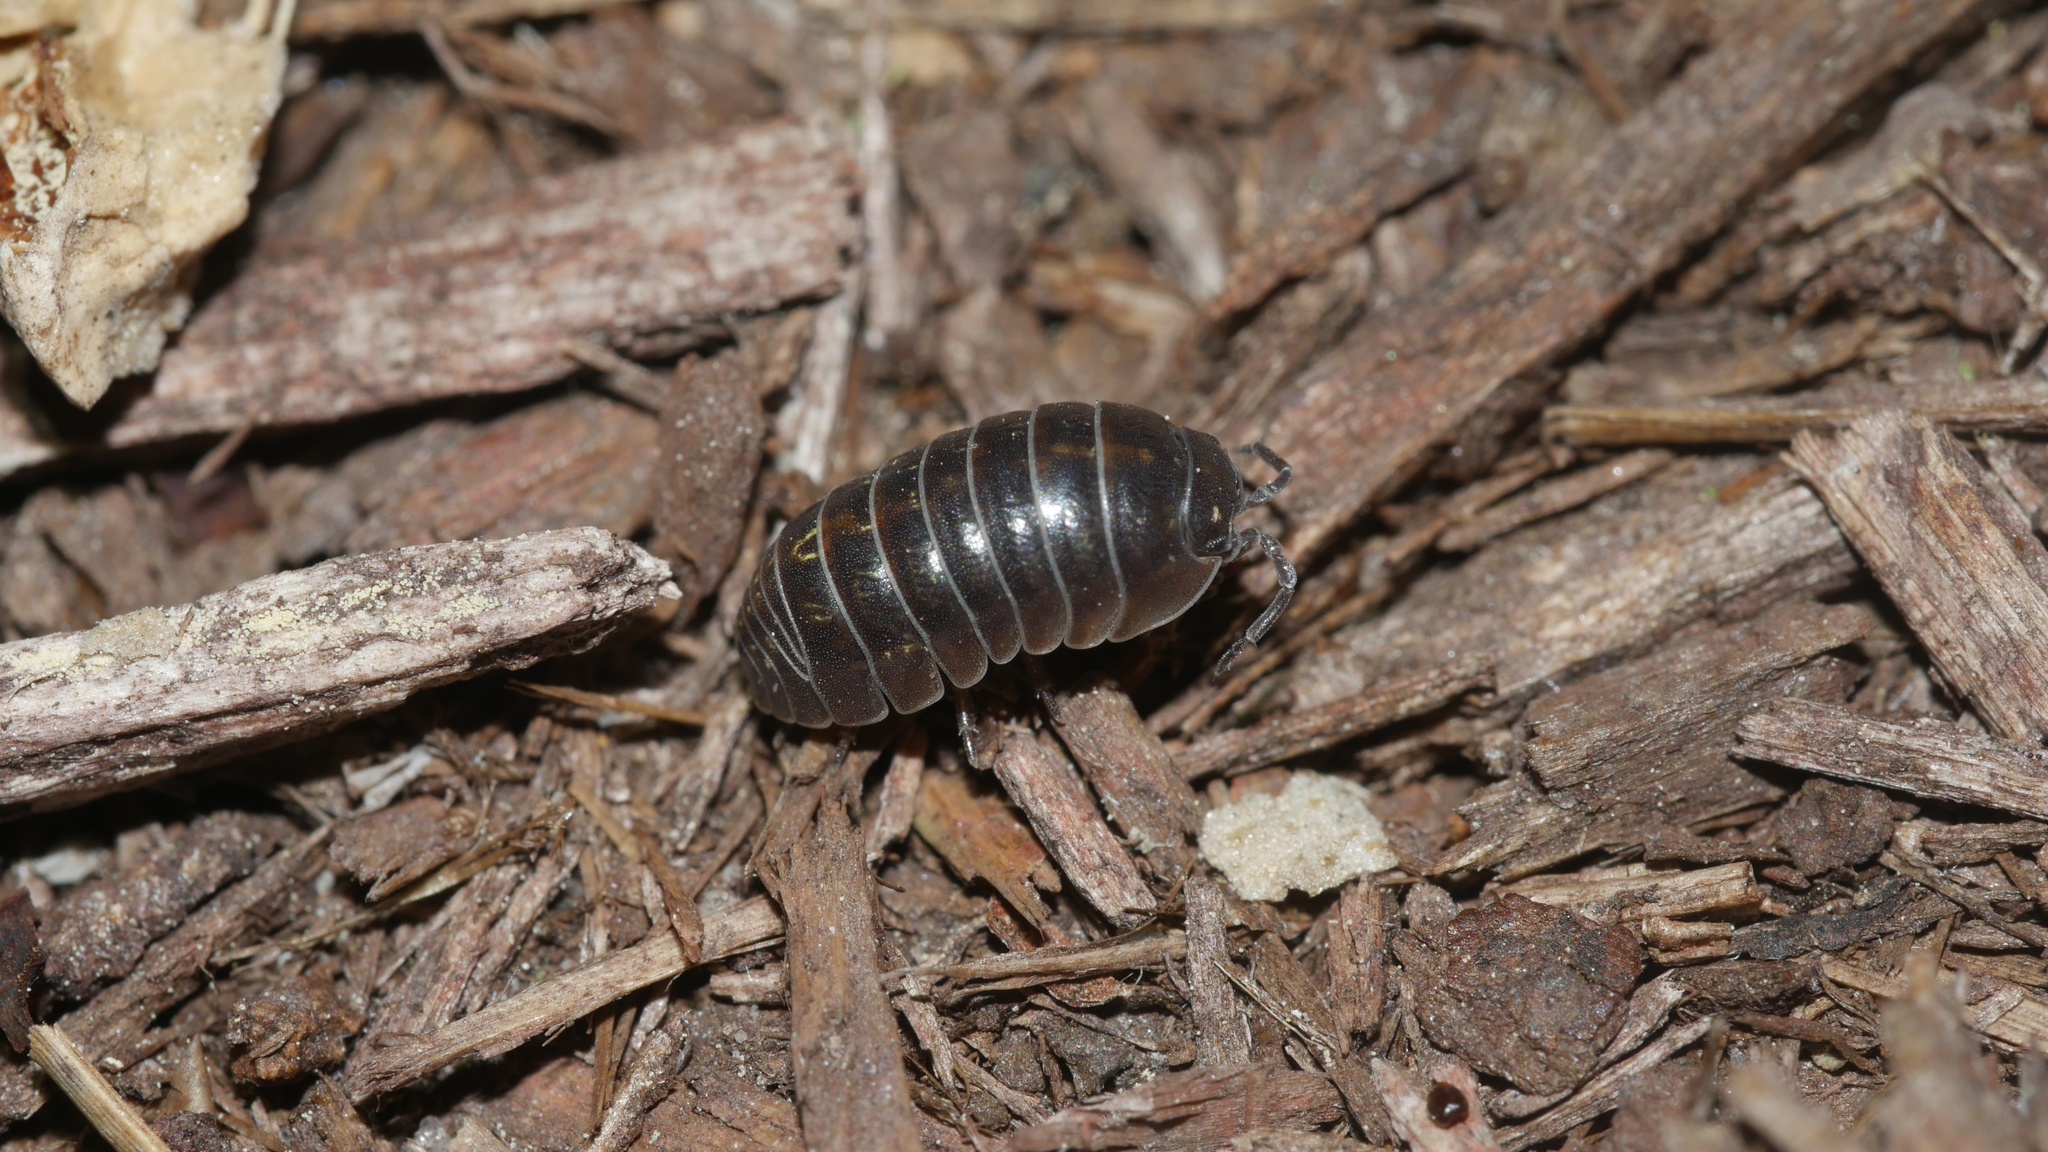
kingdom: Animalia
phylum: Arthropoda
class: Malacostraca
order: Isopoda
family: Armadillidiidae
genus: Armadillidium
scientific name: Armadillidium vulgare
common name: Common pill woodlouse
